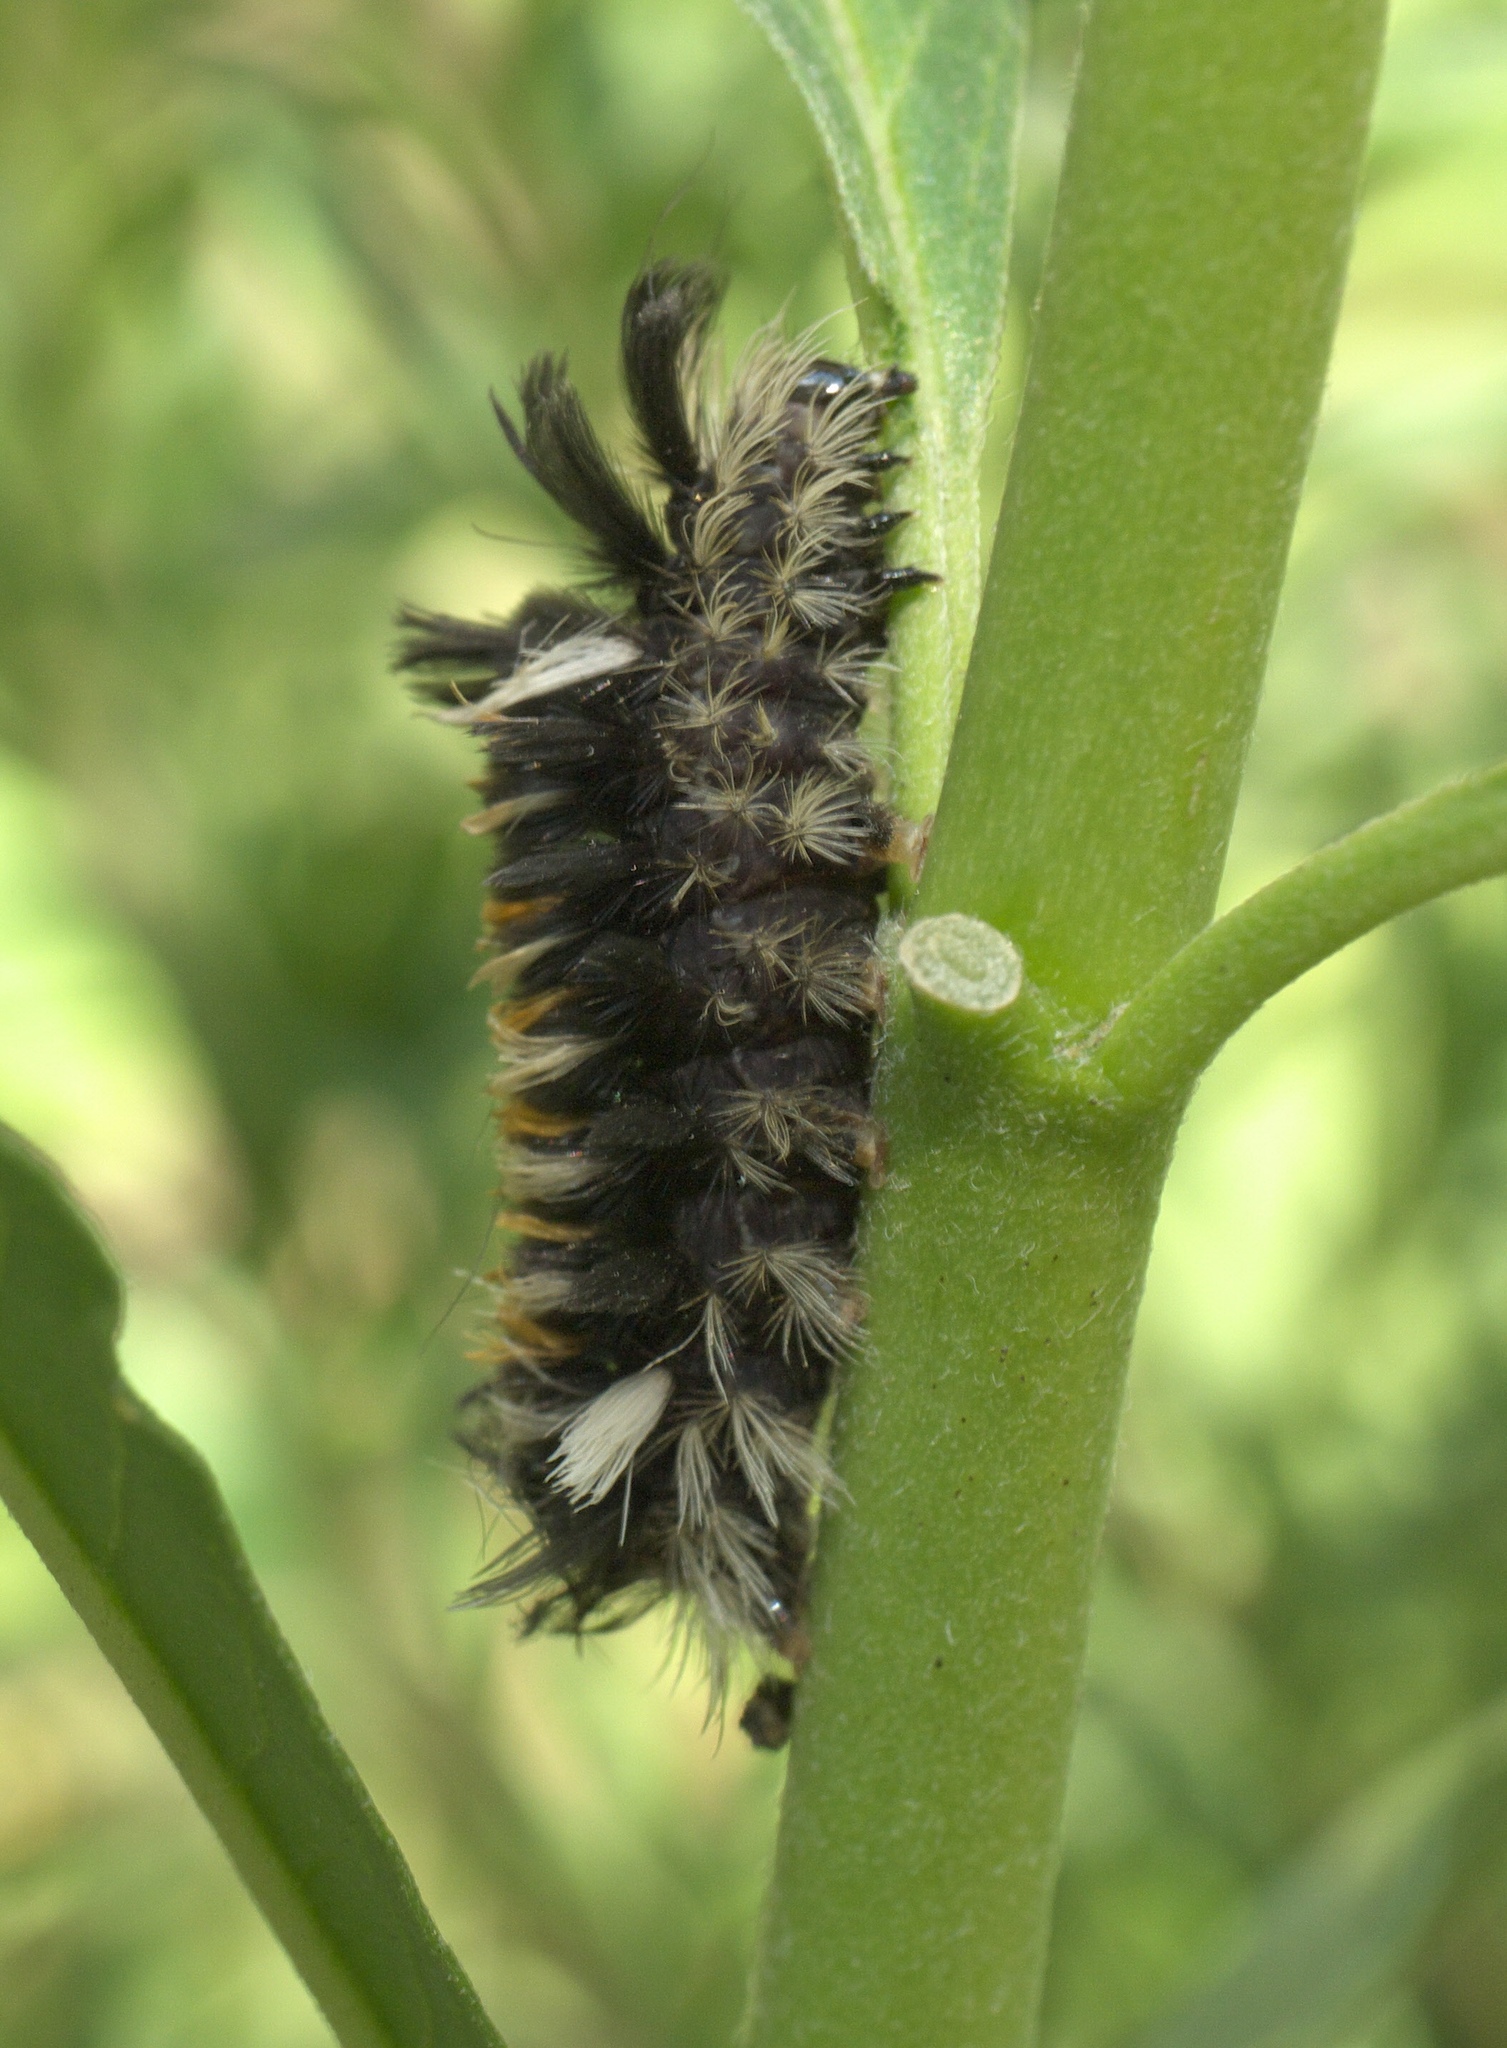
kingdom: Animalia
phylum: Arthropoda
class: Insecta
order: Lepidoptera
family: Erebidae
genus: Euchaetes
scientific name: Euchaetes egle
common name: Milkweed tussock moth
